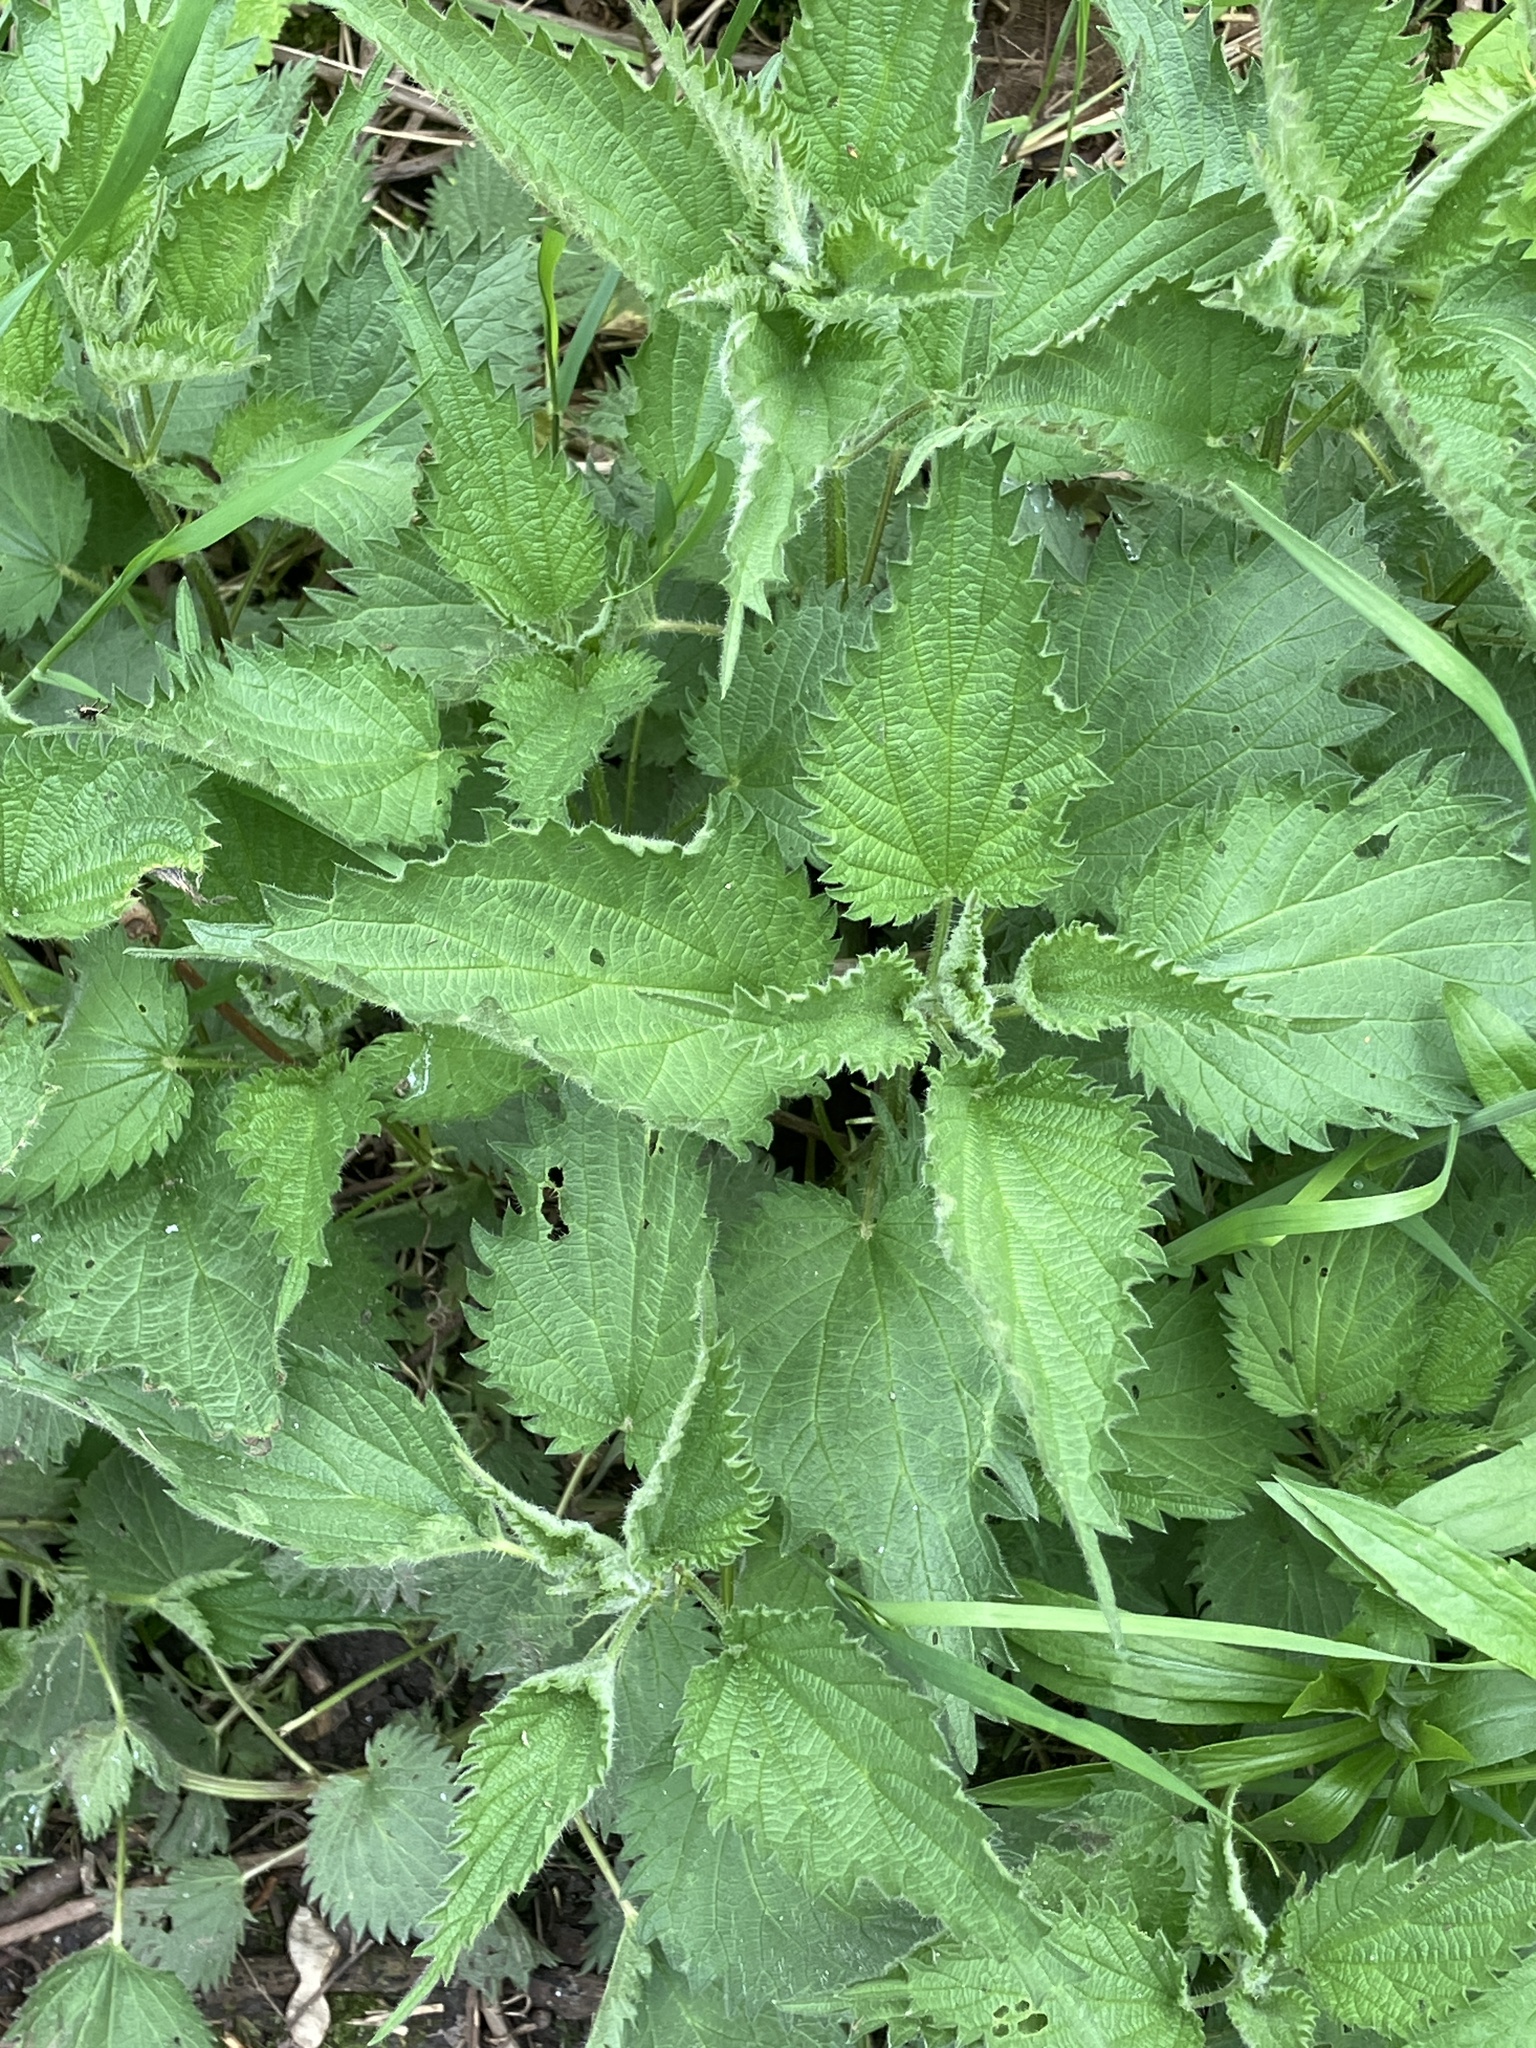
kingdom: Plantae
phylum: Tracheophyta
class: Magnoliopsida
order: Rosales
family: Urticaceae
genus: Urtica
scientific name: Urtica dioica
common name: Common nettle
